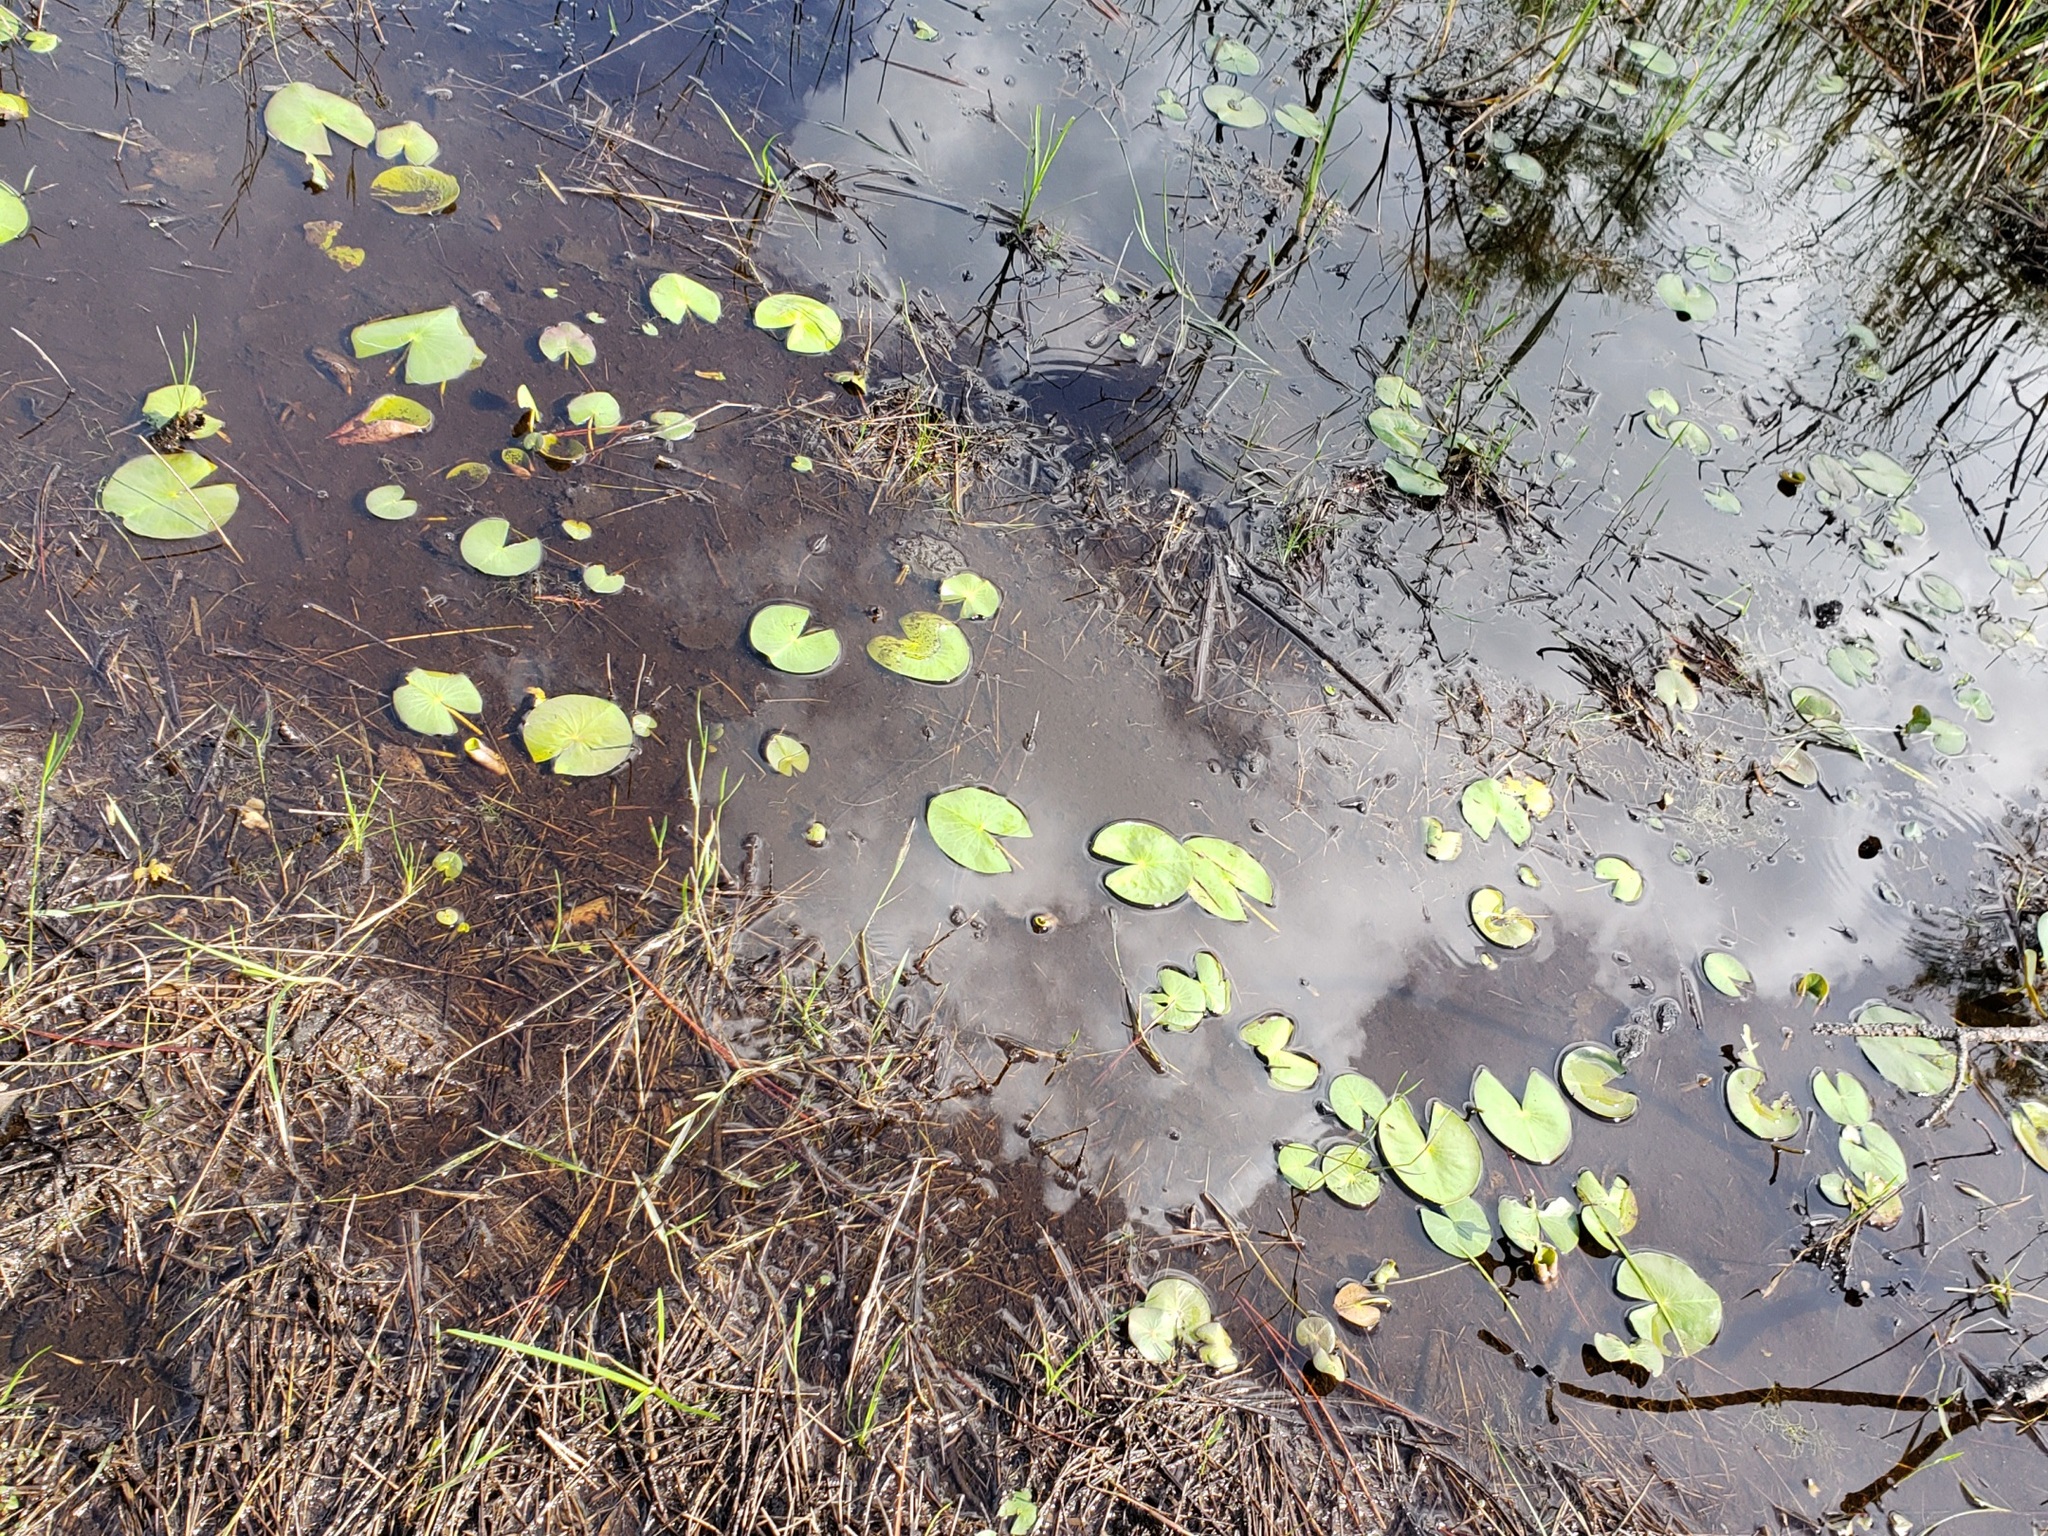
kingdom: Plantae
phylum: Tracheophyta
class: Magnoliopsida
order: Nymphaeales
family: Nymphaeaceae
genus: Nuphar
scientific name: Nuphar advena
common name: Spatter-dock
